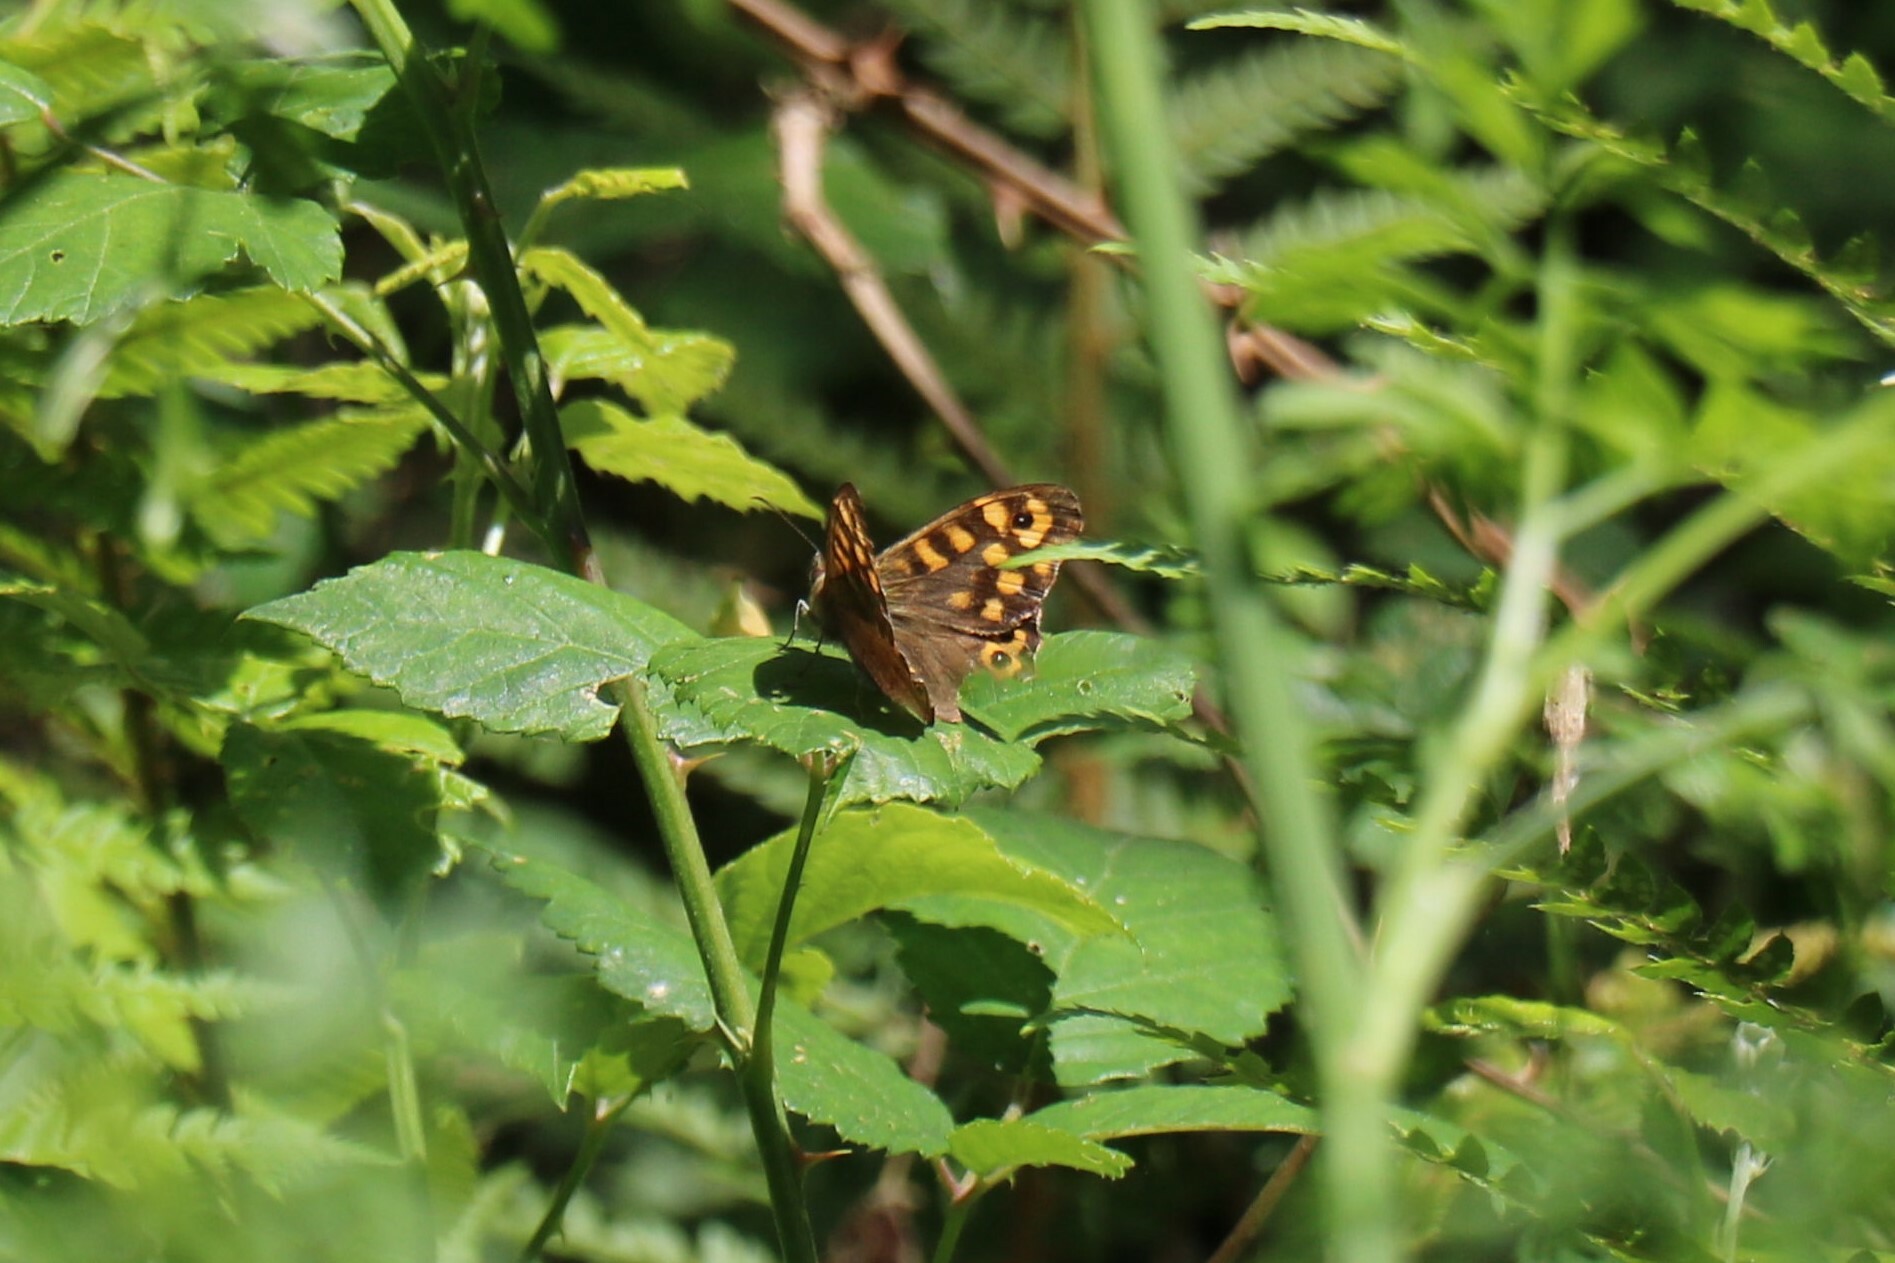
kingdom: Animalia
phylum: Arthropoda
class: Insecta
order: Lepidoptera
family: Nymphalidae
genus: Pararge
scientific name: Pararge aegeria
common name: Speckled wood
